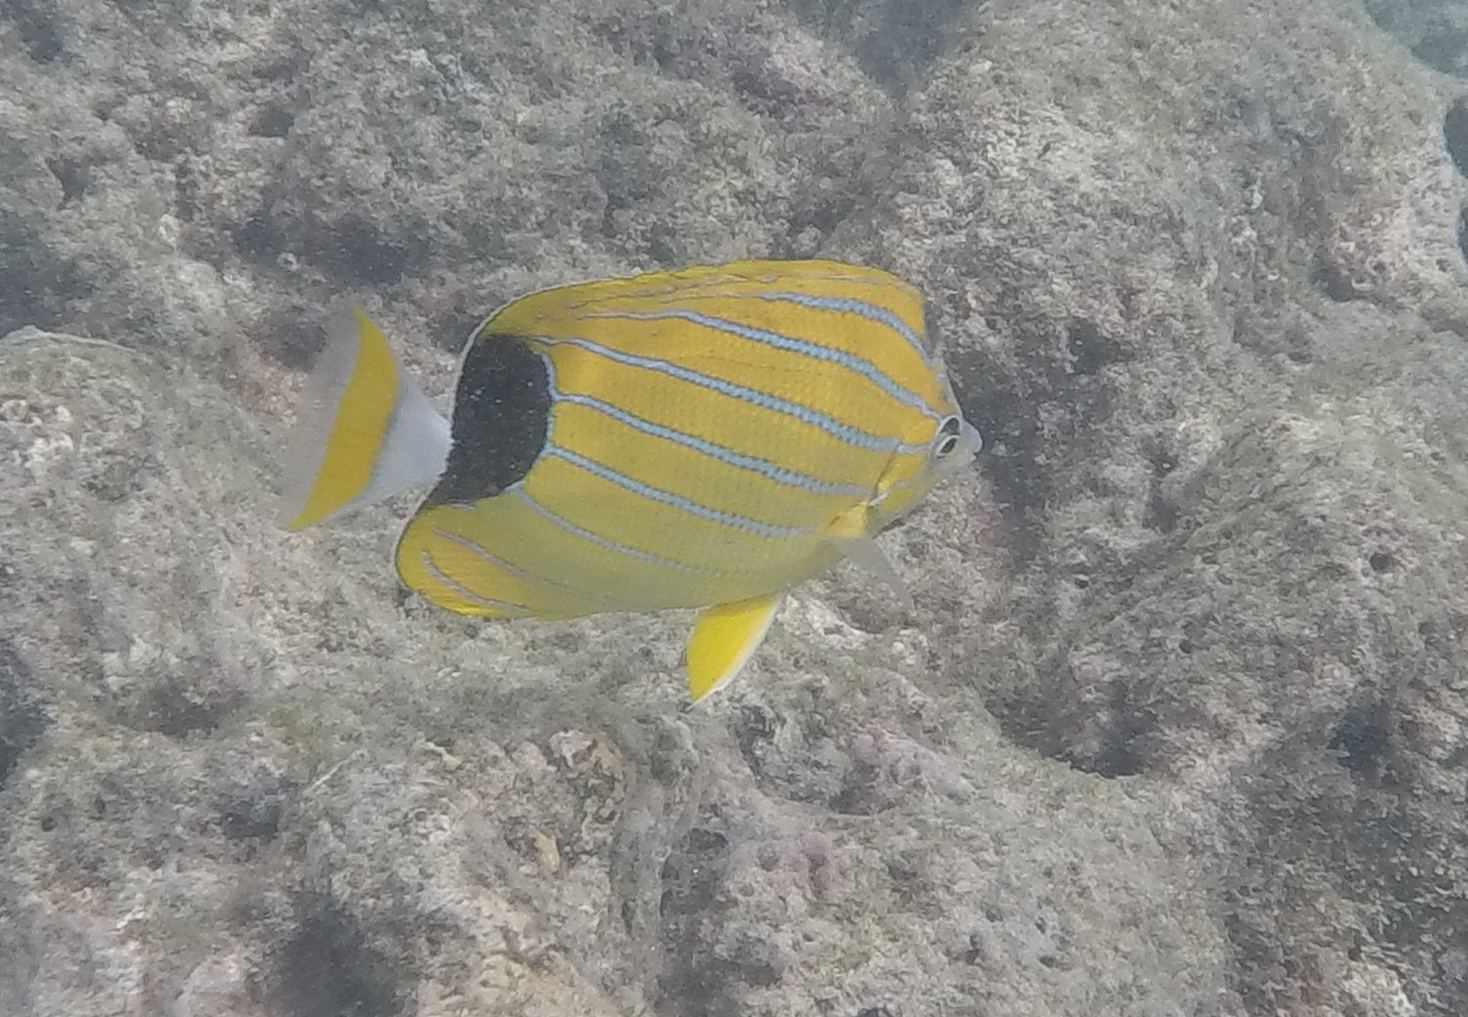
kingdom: Animalia
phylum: Chordata
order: Perciformes
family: Chaetodontidae
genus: Chaetodon
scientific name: Chaetodon fremblii
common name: Bluestriped butterflyfish
